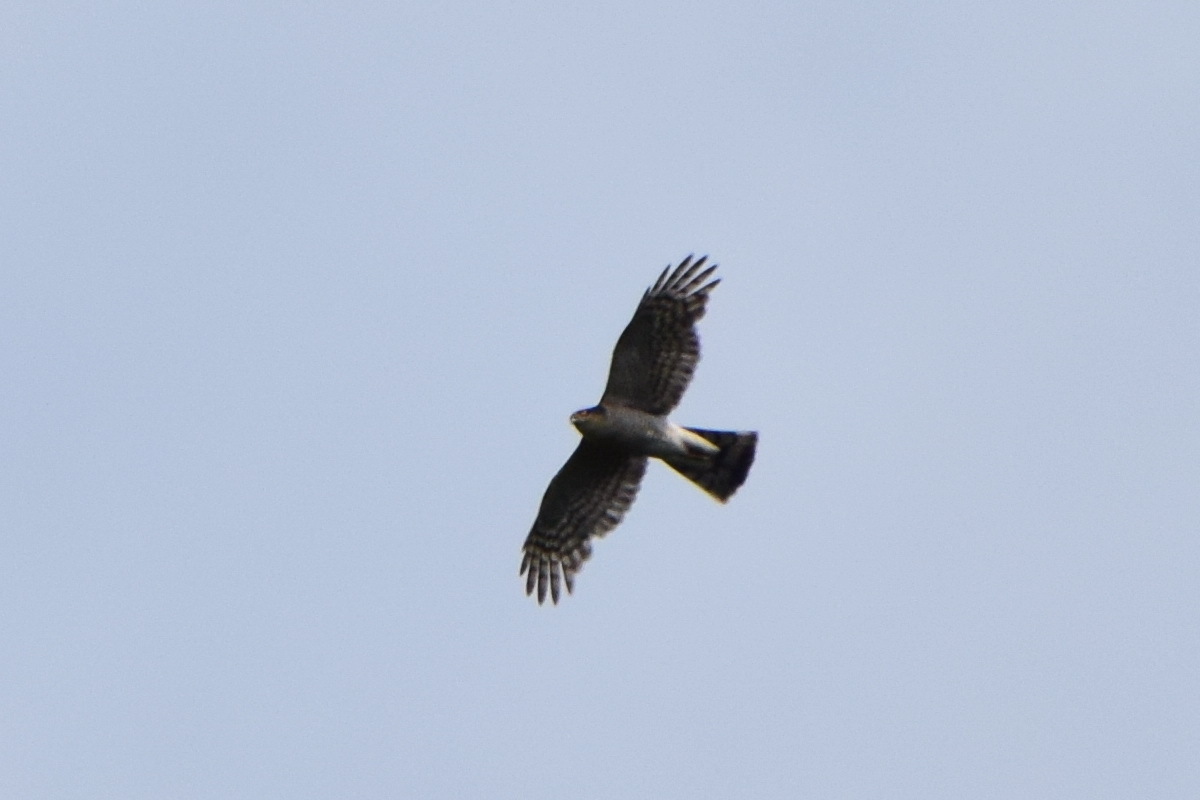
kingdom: Animalia
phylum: Chordata
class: Aves
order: Accipitriformes
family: Accipitridae
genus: Accipiter
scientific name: Accipiter nisus
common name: Eurasian sparrowhawk
